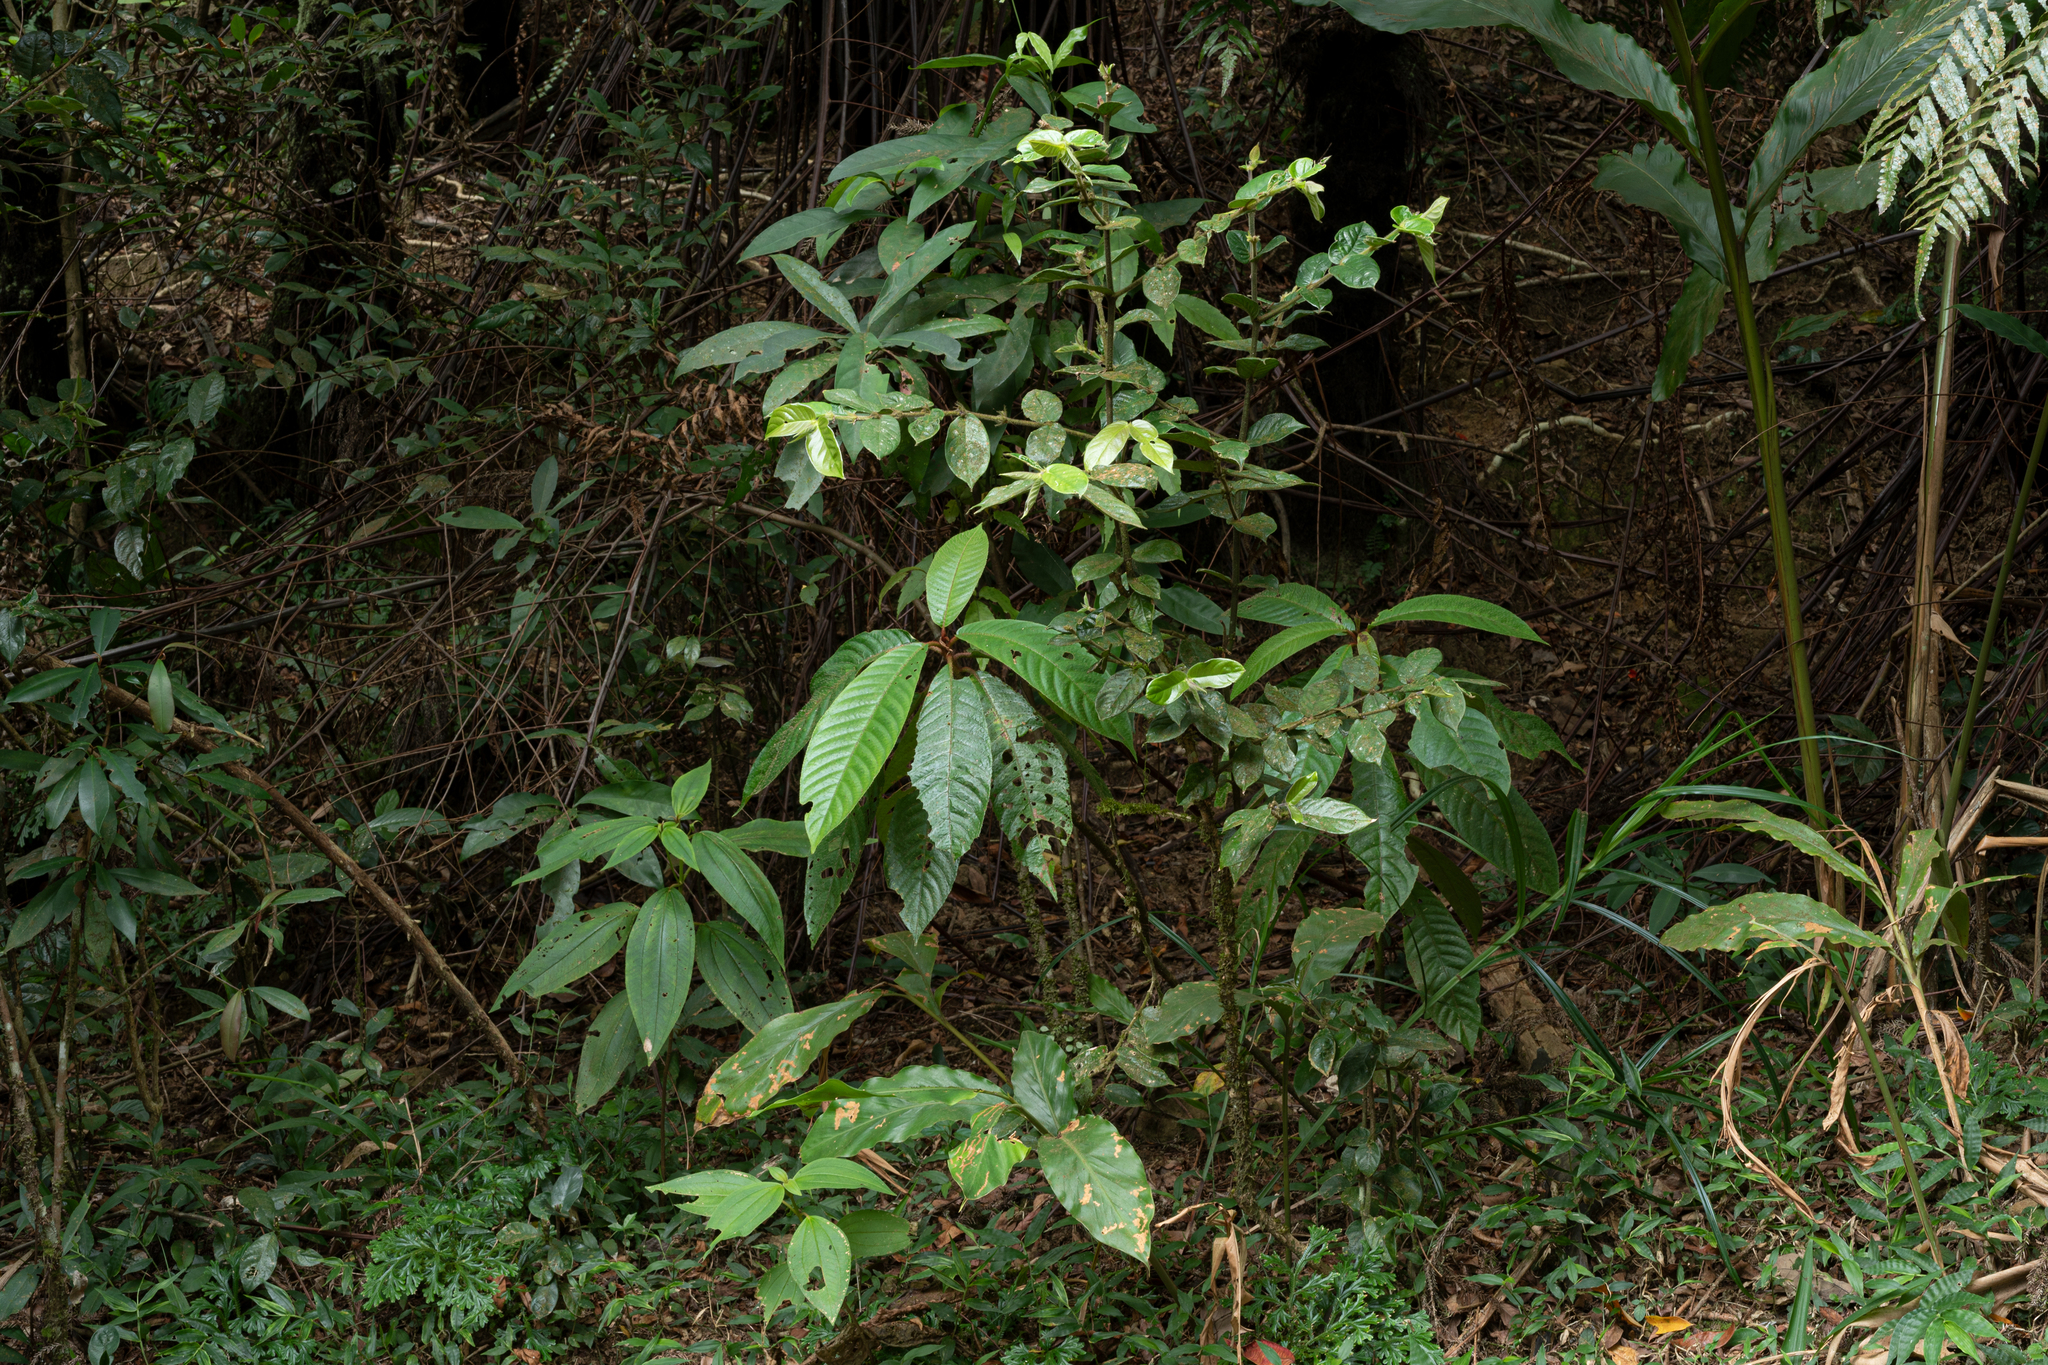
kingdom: Plantae
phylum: Tracheophyta
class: Magnoliopsida
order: Gentianales
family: Rubiaceae
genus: Lasianthus
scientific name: Lasianthus attenuatus
